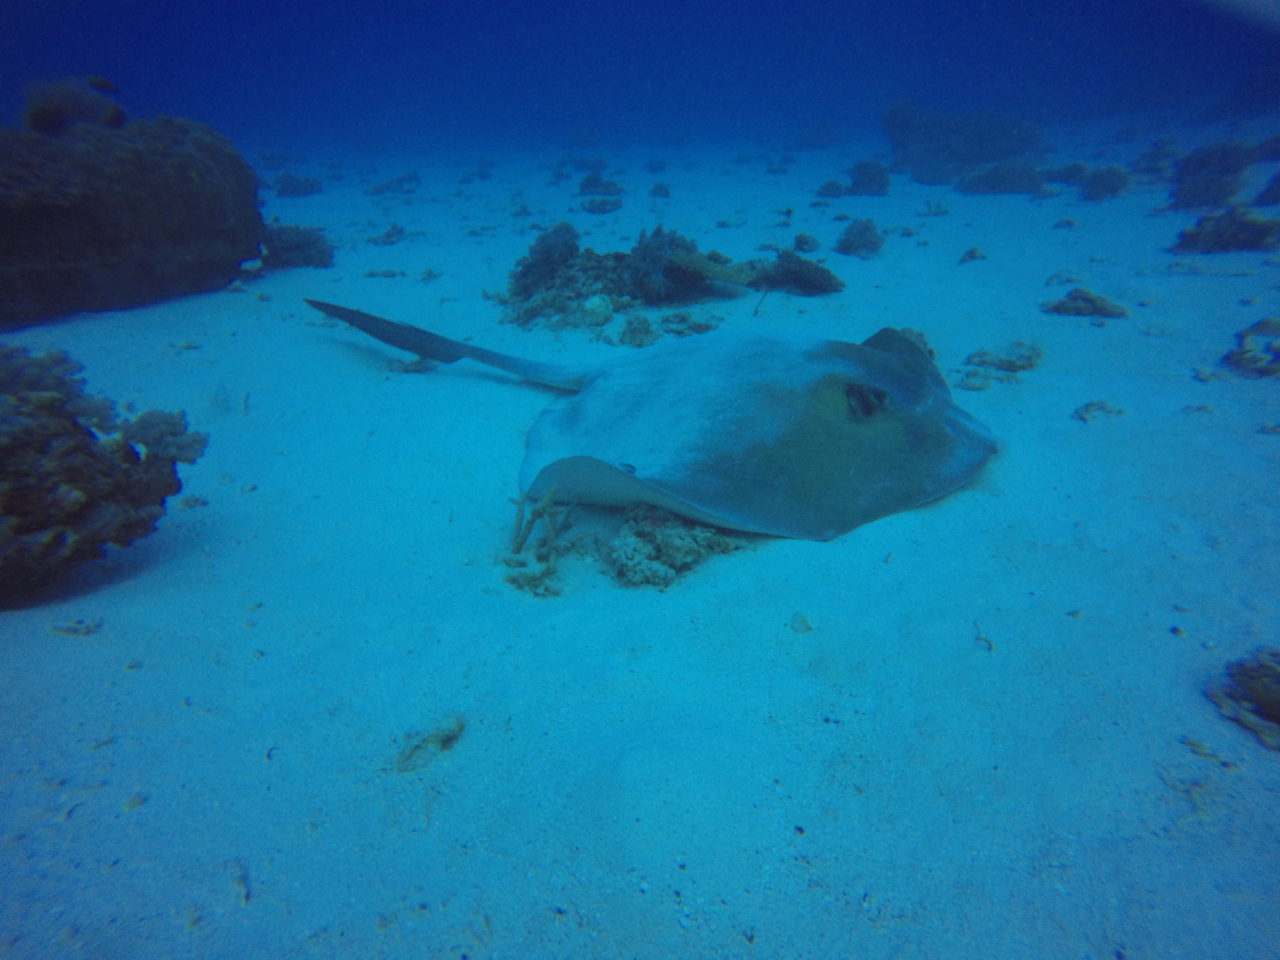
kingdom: Animalia
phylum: Chordata
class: Elasmobranchii
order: Myliobatiformes
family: Dasyatidae
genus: Pastinachus
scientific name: Pastinachus ater
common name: Banana-tail ray
